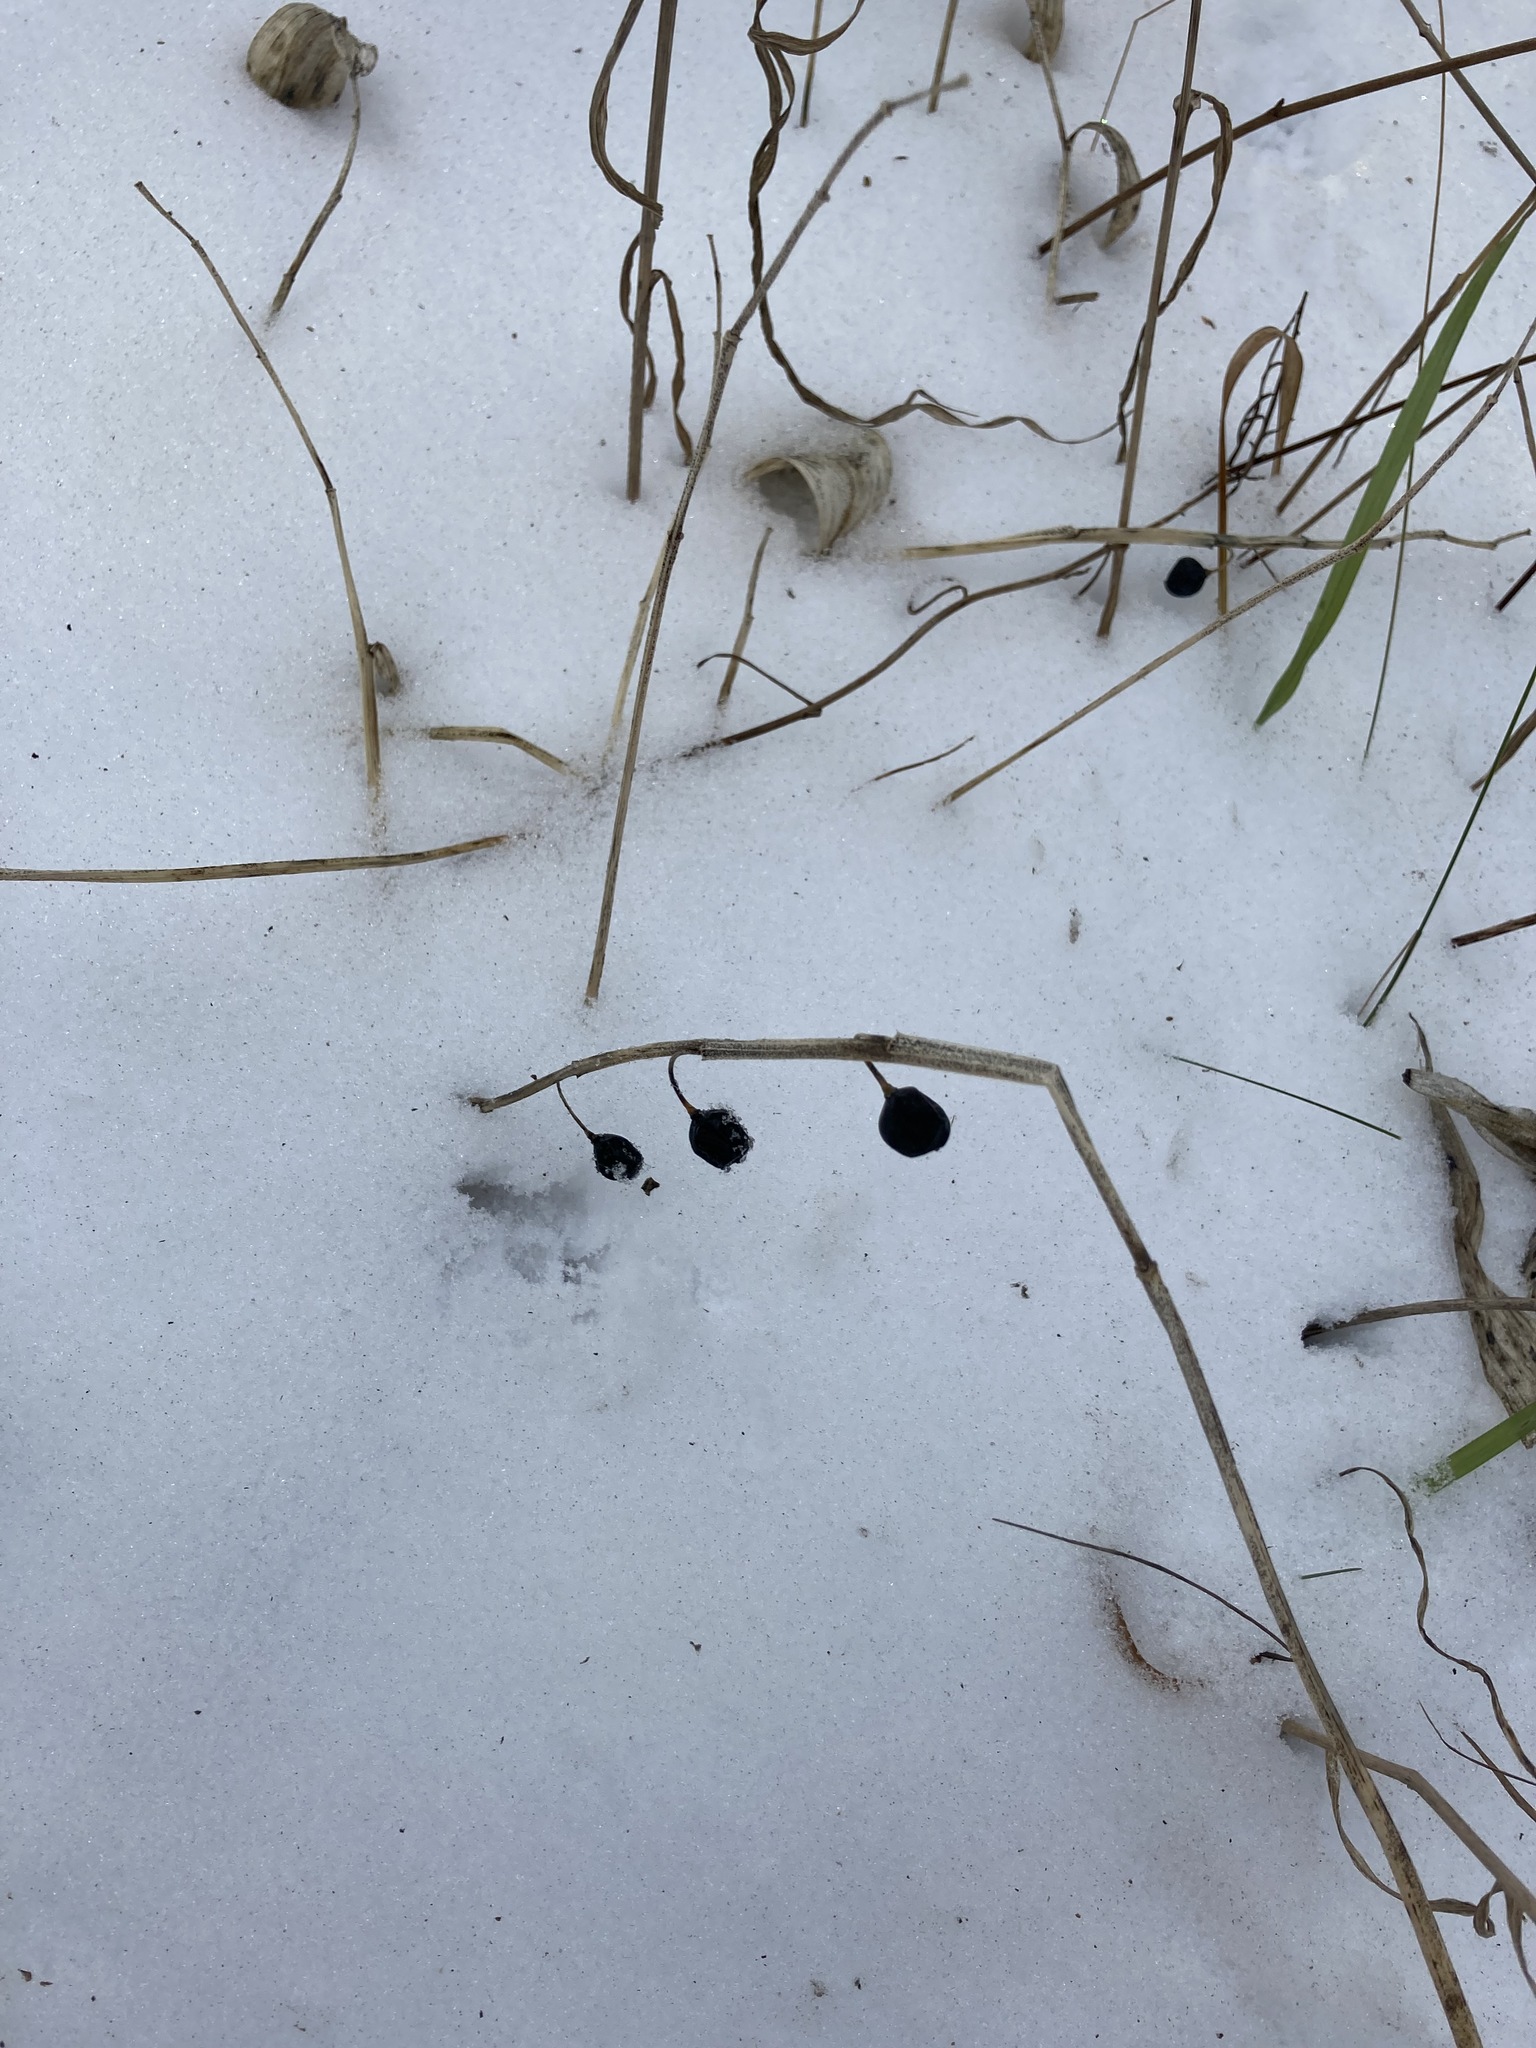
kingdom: Plantae
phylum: Tracheophyta
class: Liliopsida
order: Asparagales
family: Asparagaceae
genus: Polygonatum
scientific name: Polygonatum odoratum
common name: Angular solomon's-seal
